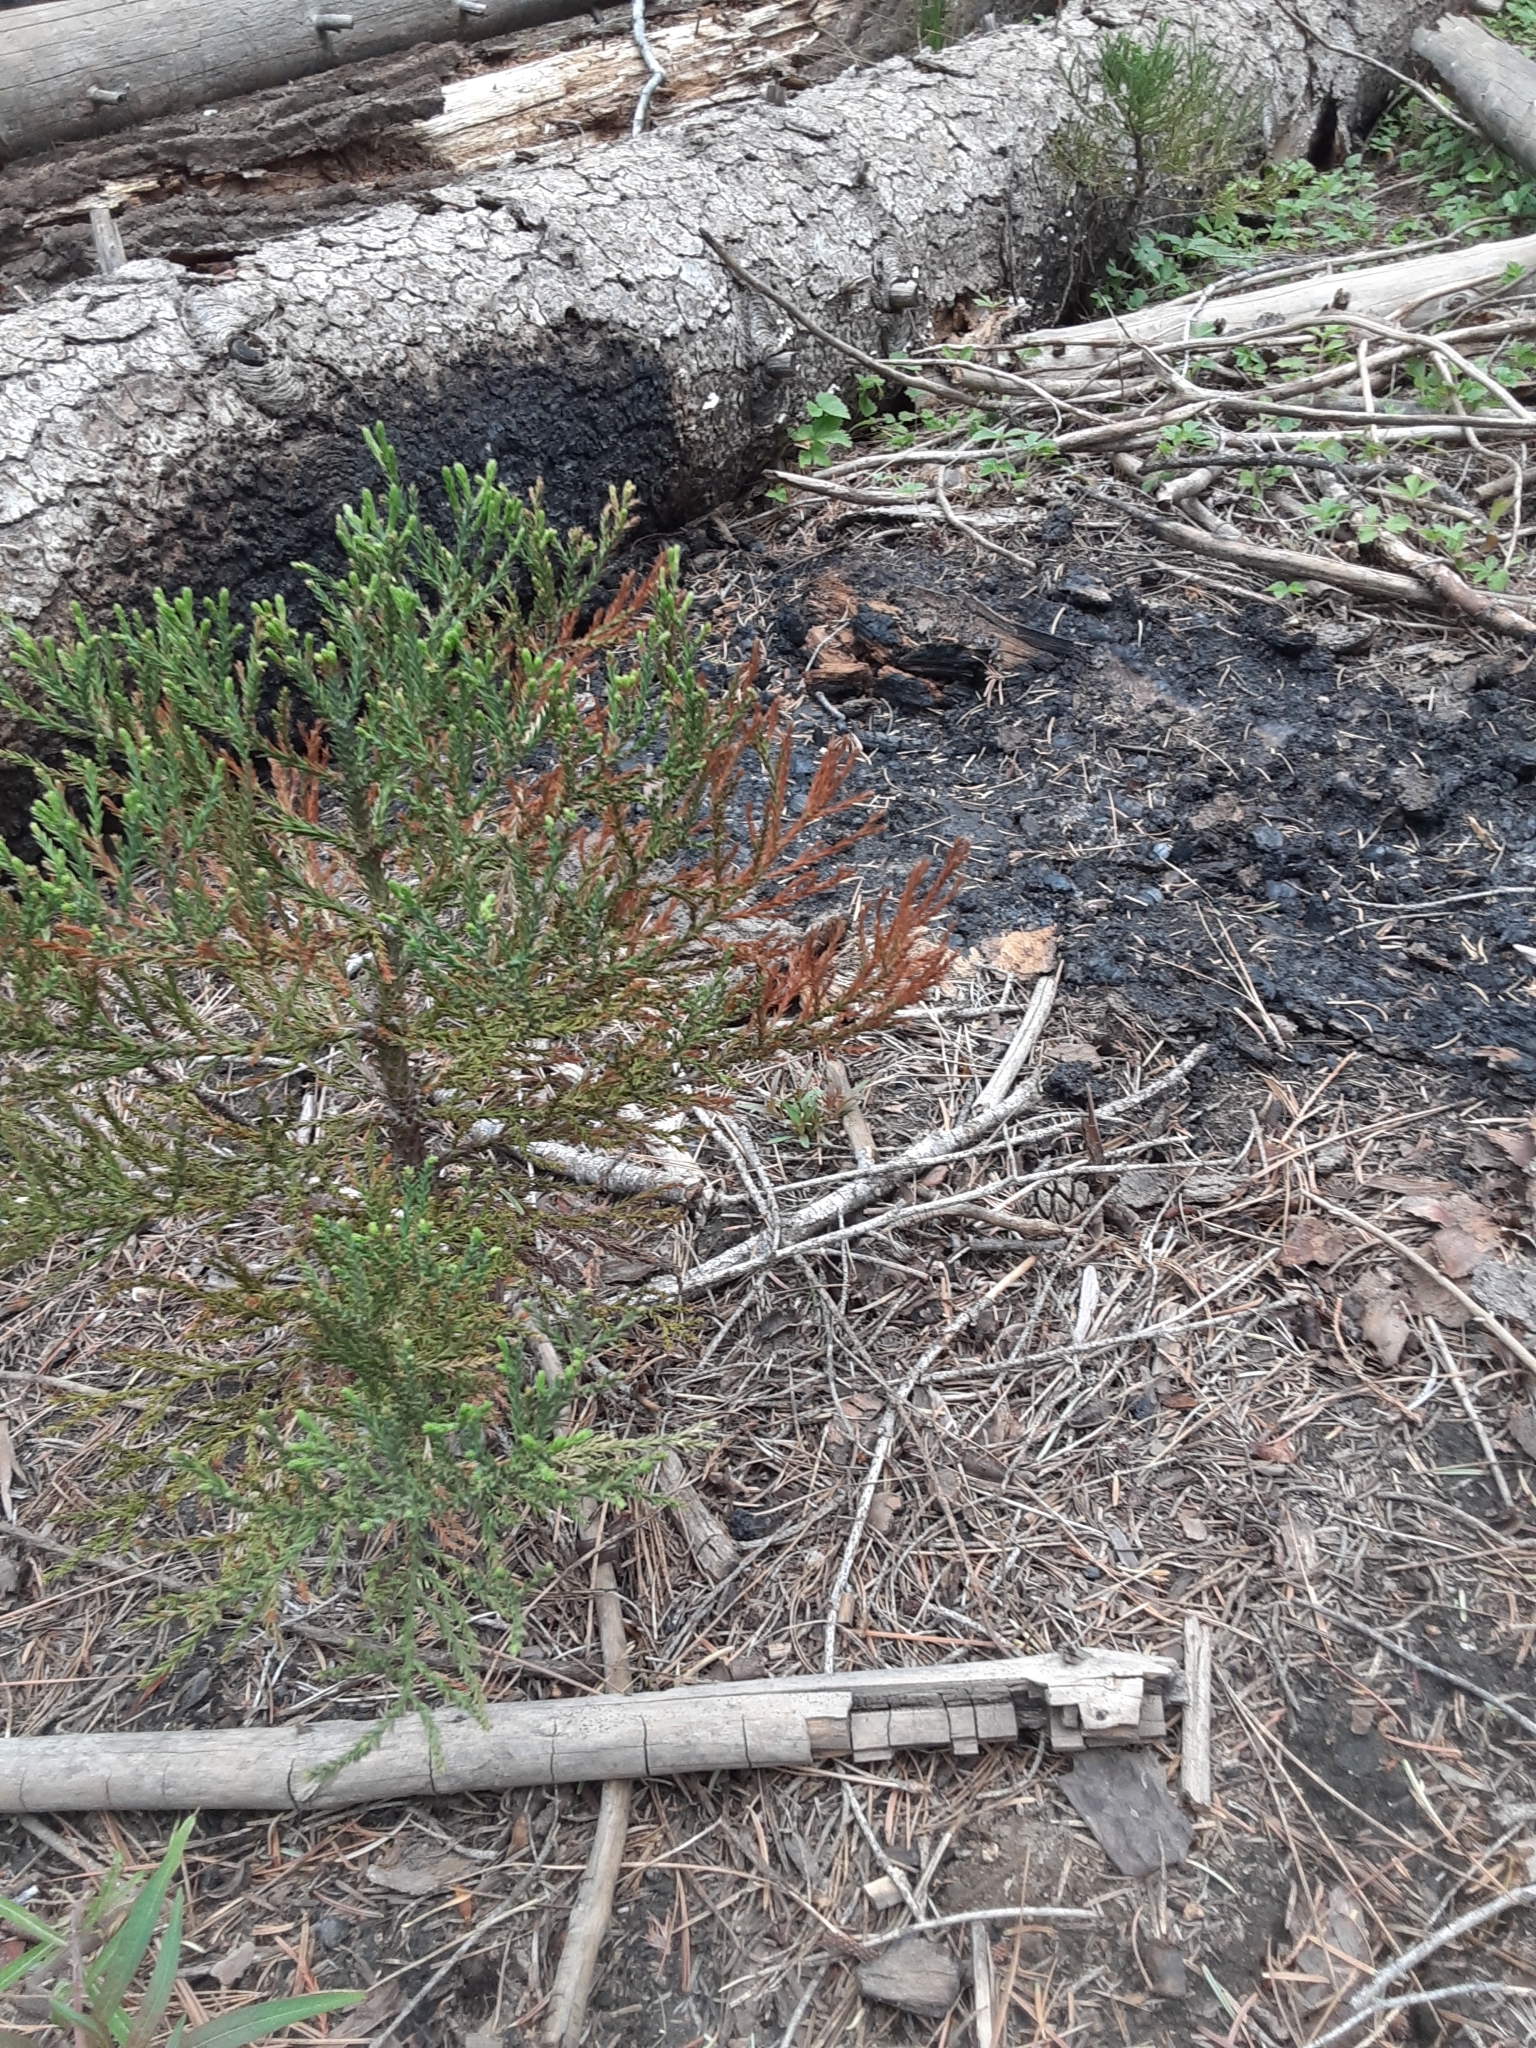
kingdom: Plantae
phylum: Tracheophyta
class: Pinopsida
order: Pinales
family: Cupressaceae
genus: Sequoiadendron
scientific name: Sequoiadendron giganteum
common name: Wellingtonia
